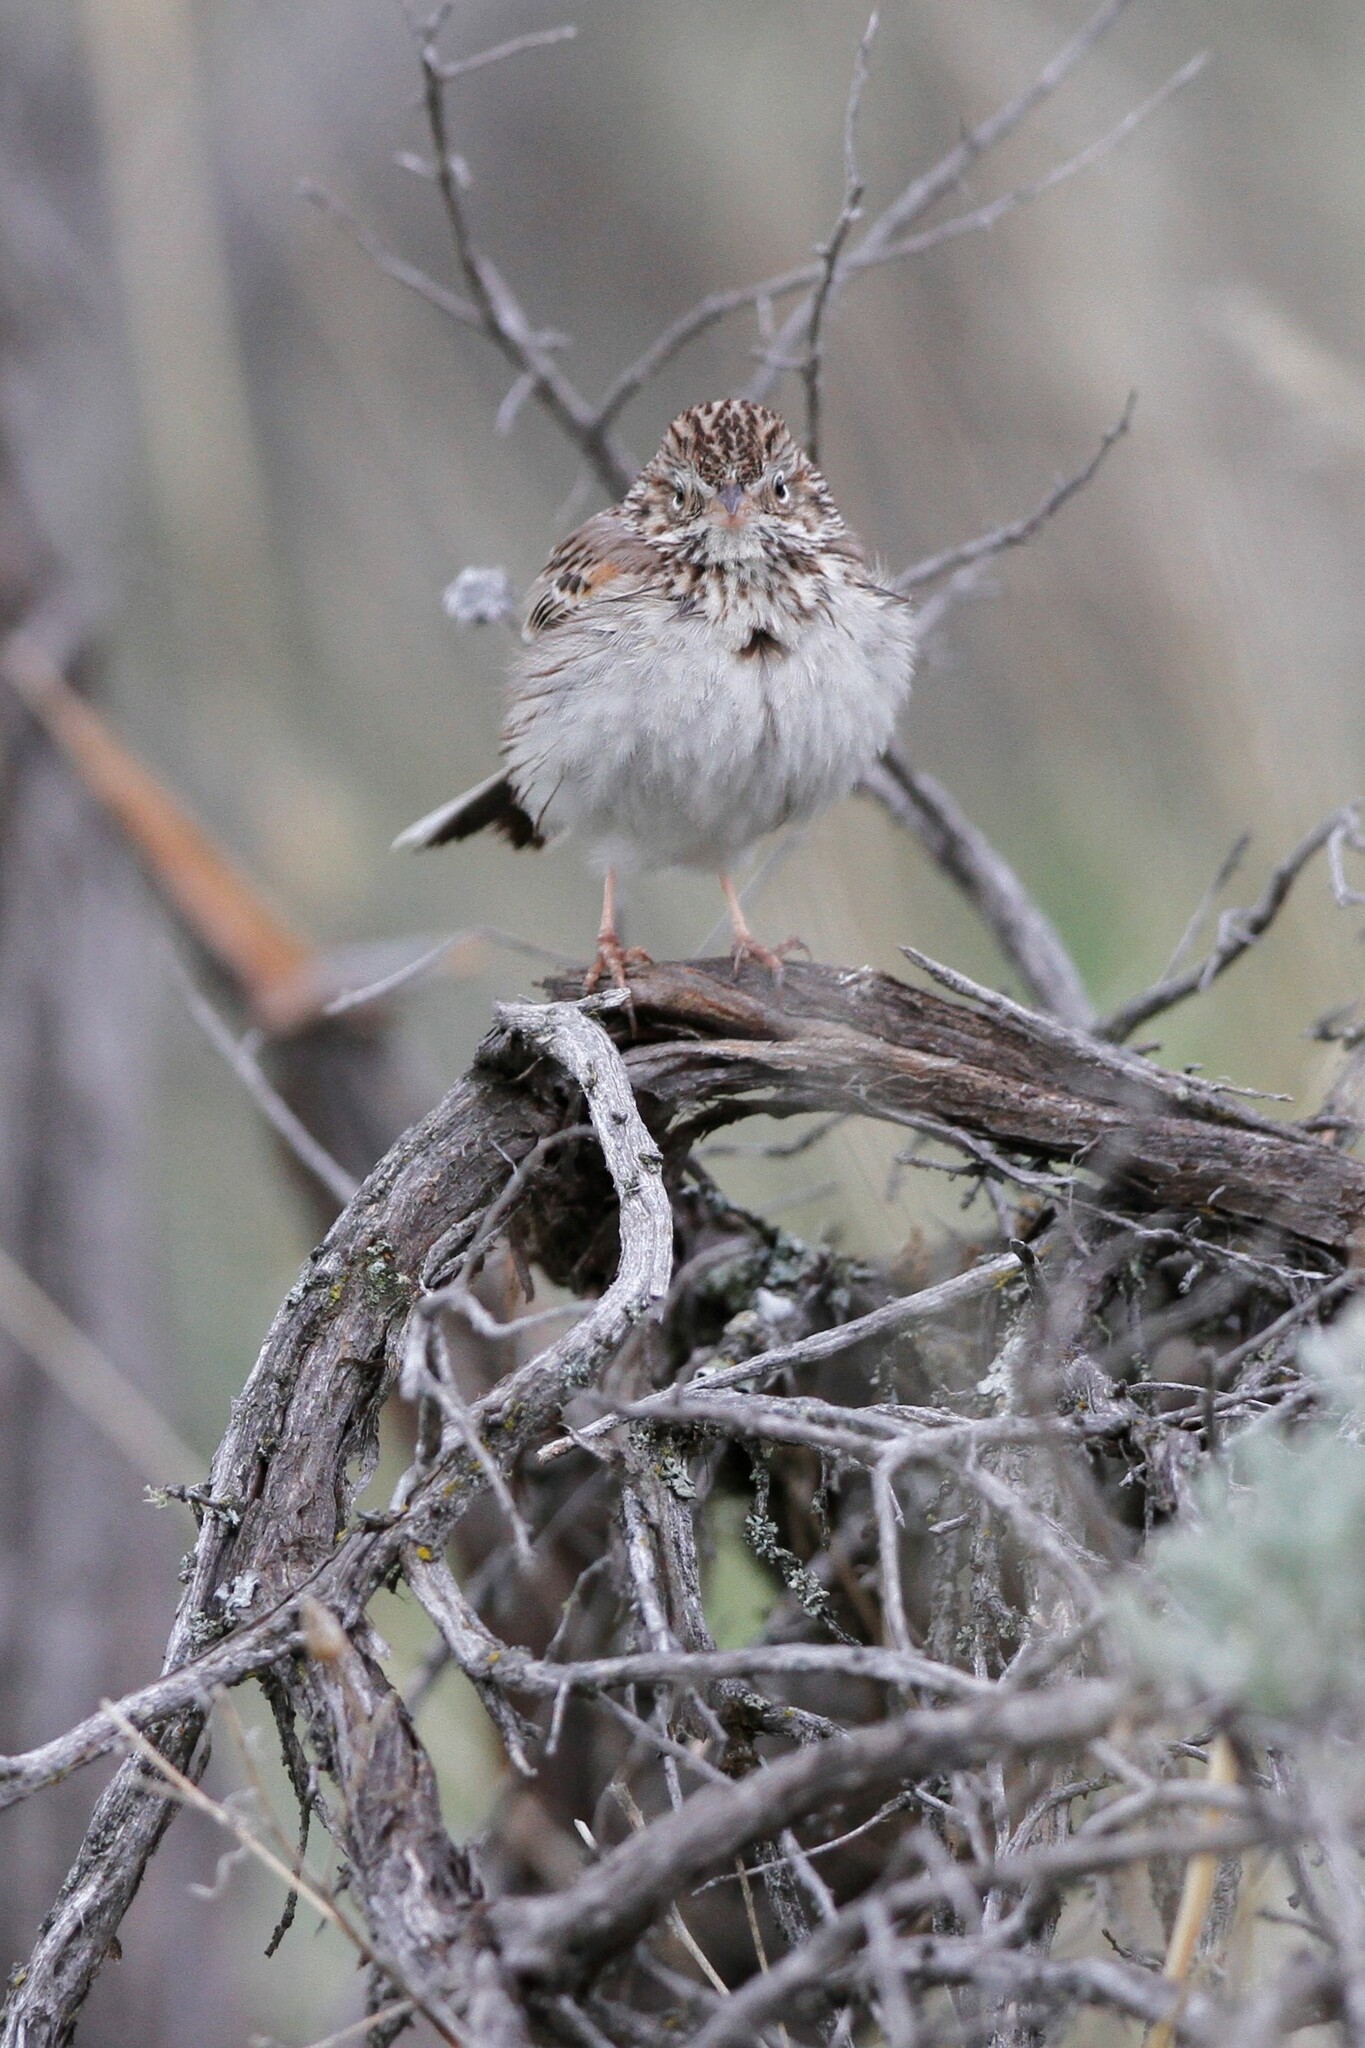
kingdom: Animalia
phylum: Chordata
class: Aves
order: Passeriformes
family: Passerellidae
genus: Pooecetes
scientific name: Pooecetes gramineus
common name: Vesper sparrow
